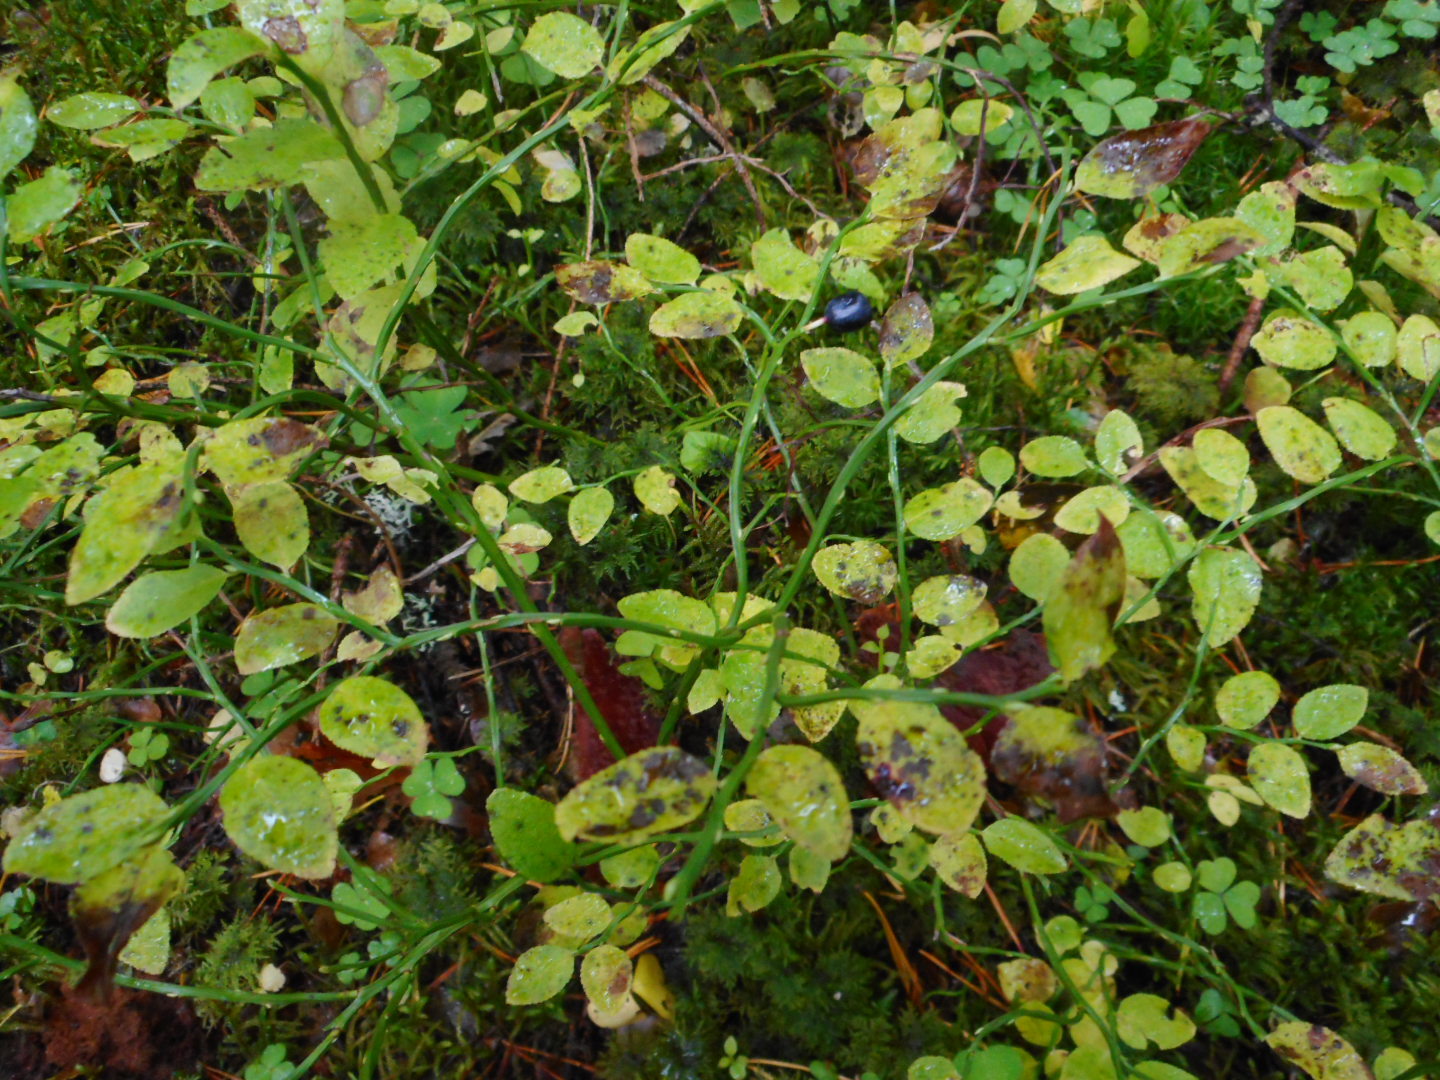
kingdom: Plantae
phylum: Tracheophyta
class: Magnoliopsida
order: Ericales
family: Ericaceae
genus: Vaccinium
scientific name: Vaccinium myrtillus
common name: Bilberry
